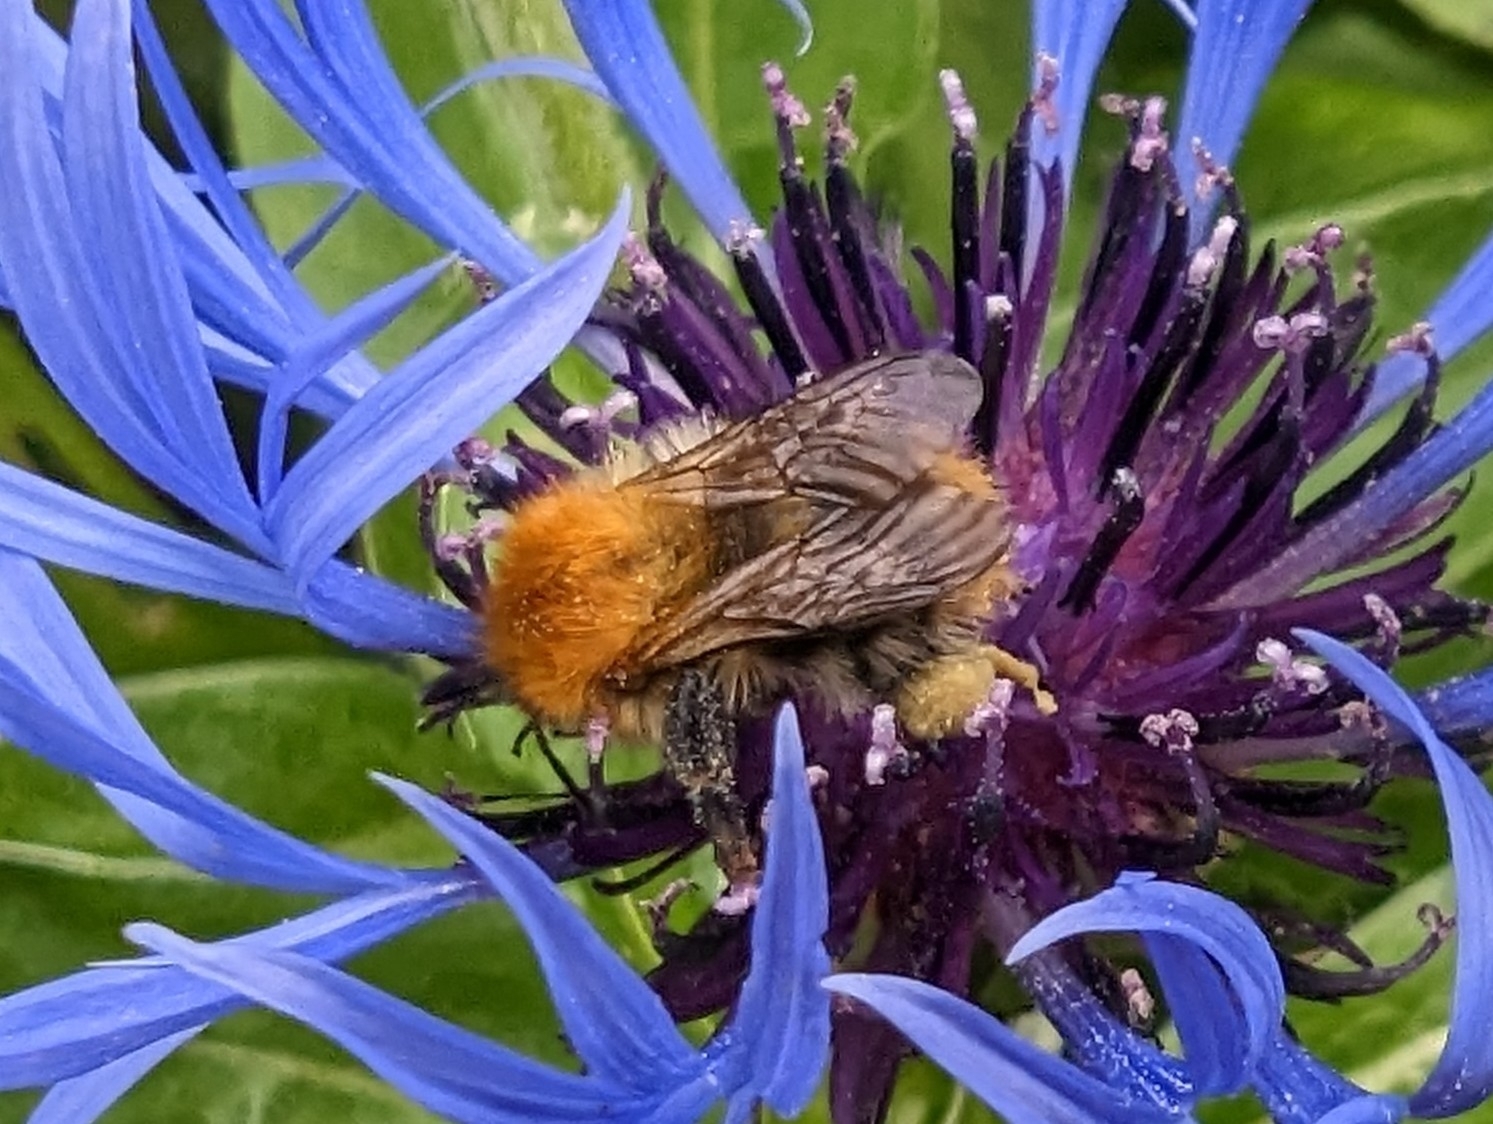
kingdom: Animalia
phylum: Arthropoda
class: Insecta
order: Hymenoptera
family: Apidae
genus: Bombus
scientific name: Bombus pascuorum
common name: Common carder bee
